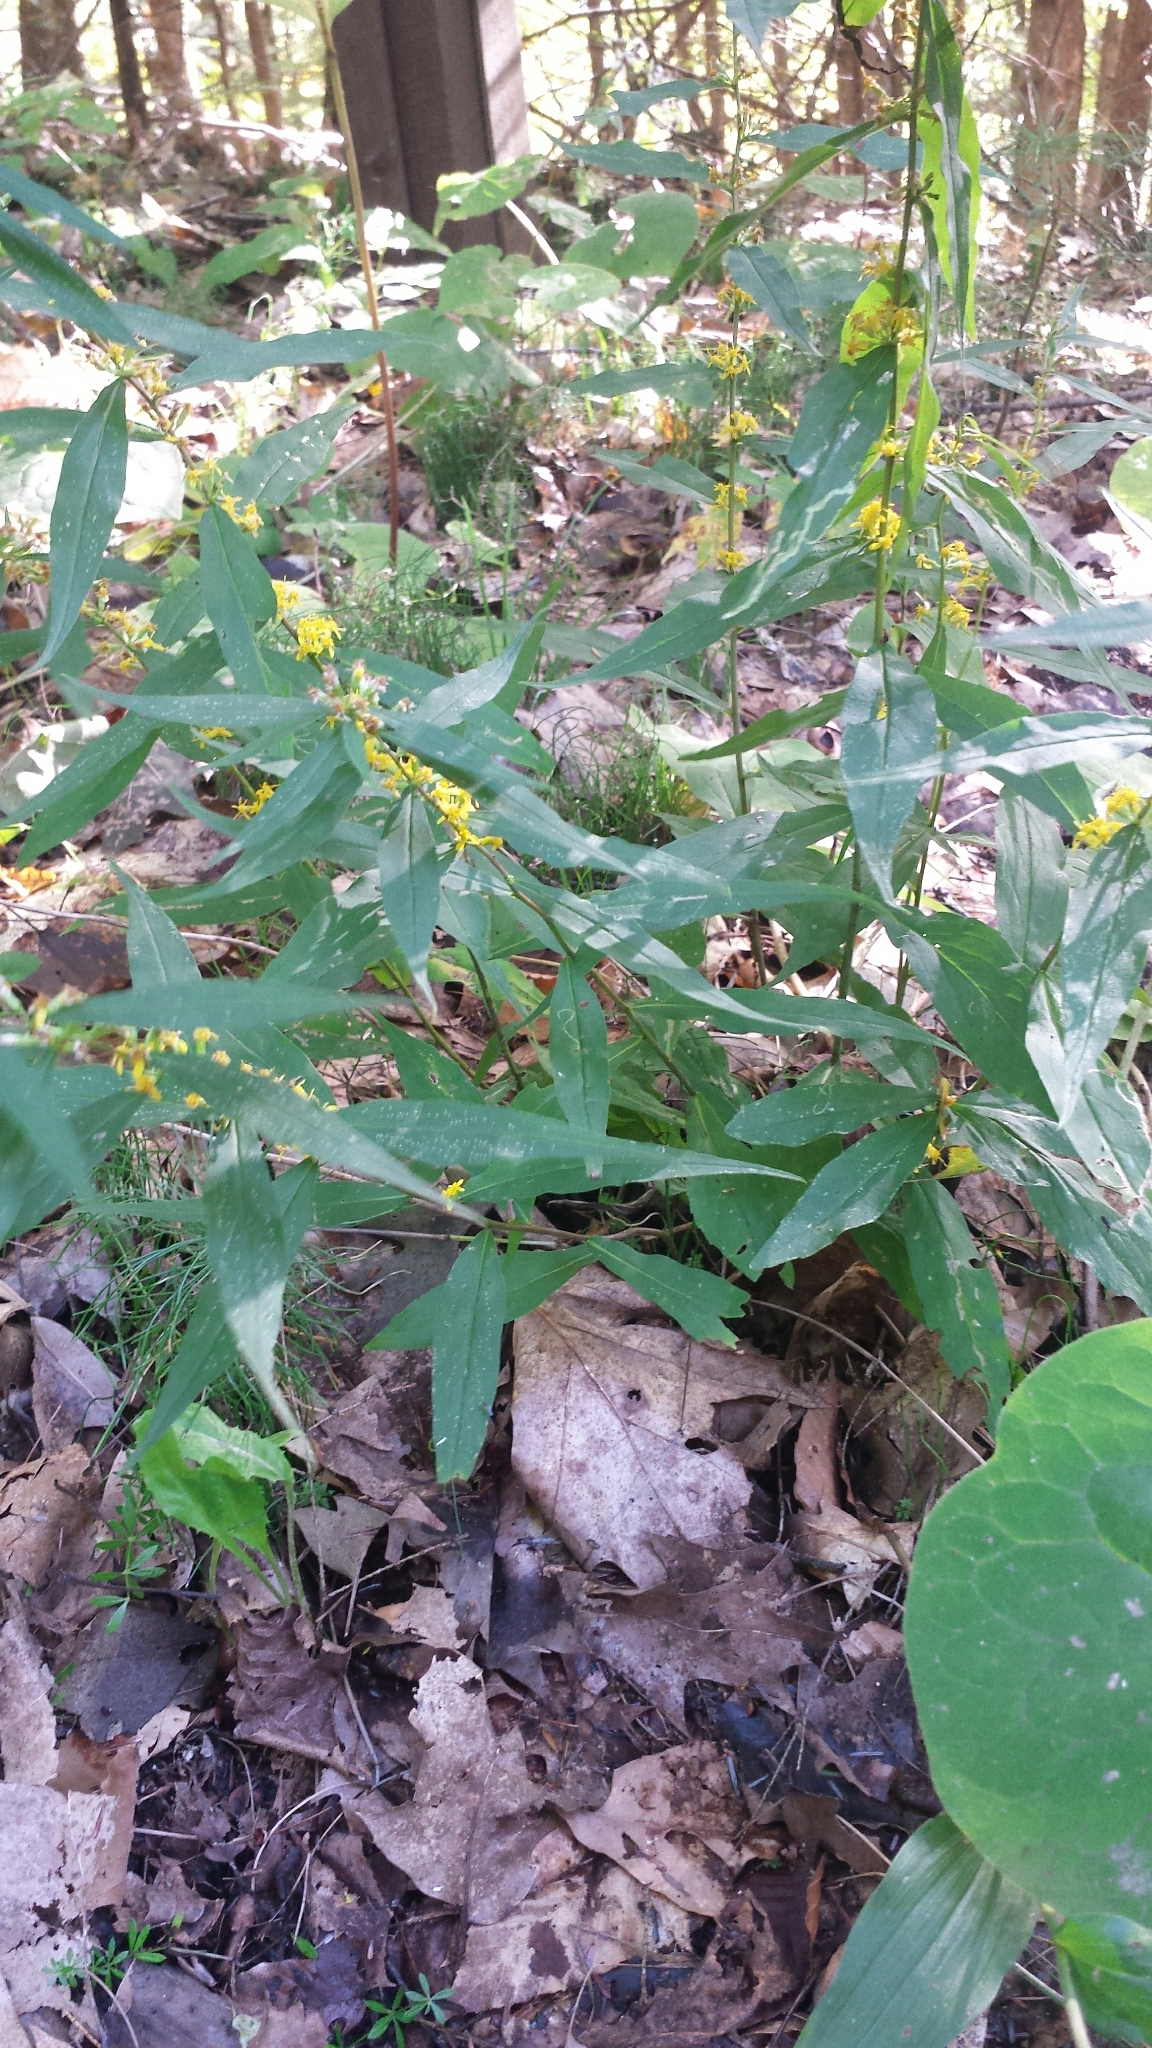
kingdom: Plantae
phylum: Tracheophyta
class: Magnoliopsida
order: Asterales
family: Asteraceae
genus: Solidago
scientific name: Solidago caesia
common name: Woodland goldenrod
